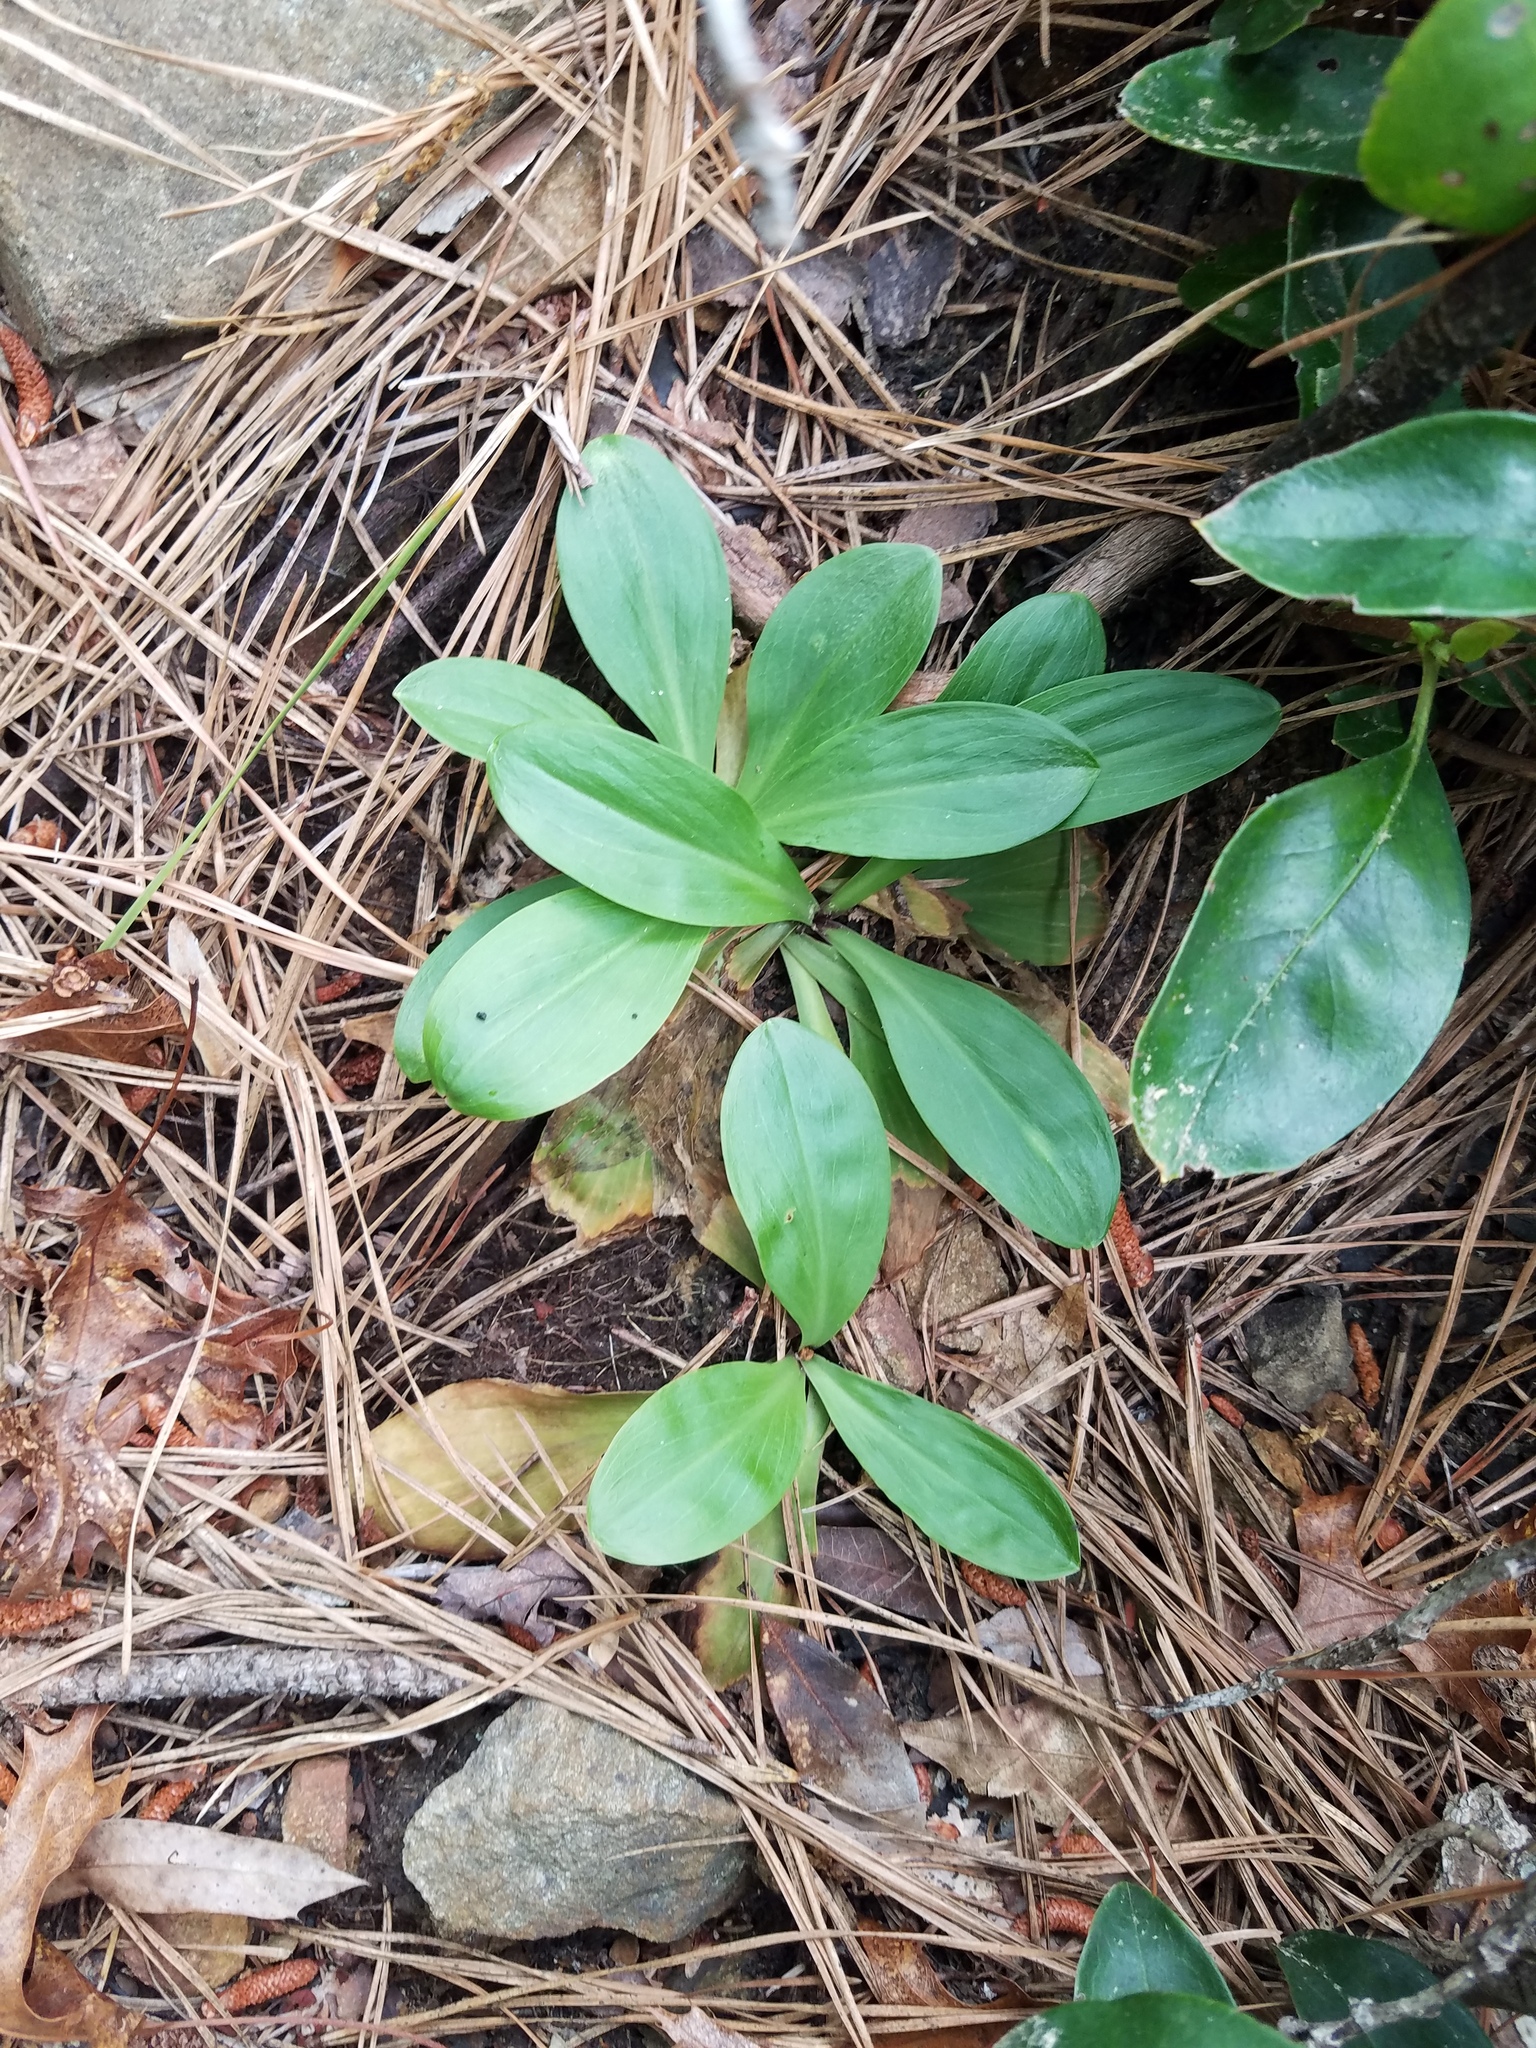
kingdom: Plantae
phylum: Tracheophyta
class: Liliopsida
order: Liliales
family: Melanthiaceae
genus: Chamaelirium
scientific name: Chamaelirium luteum
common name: Fairy-wand
